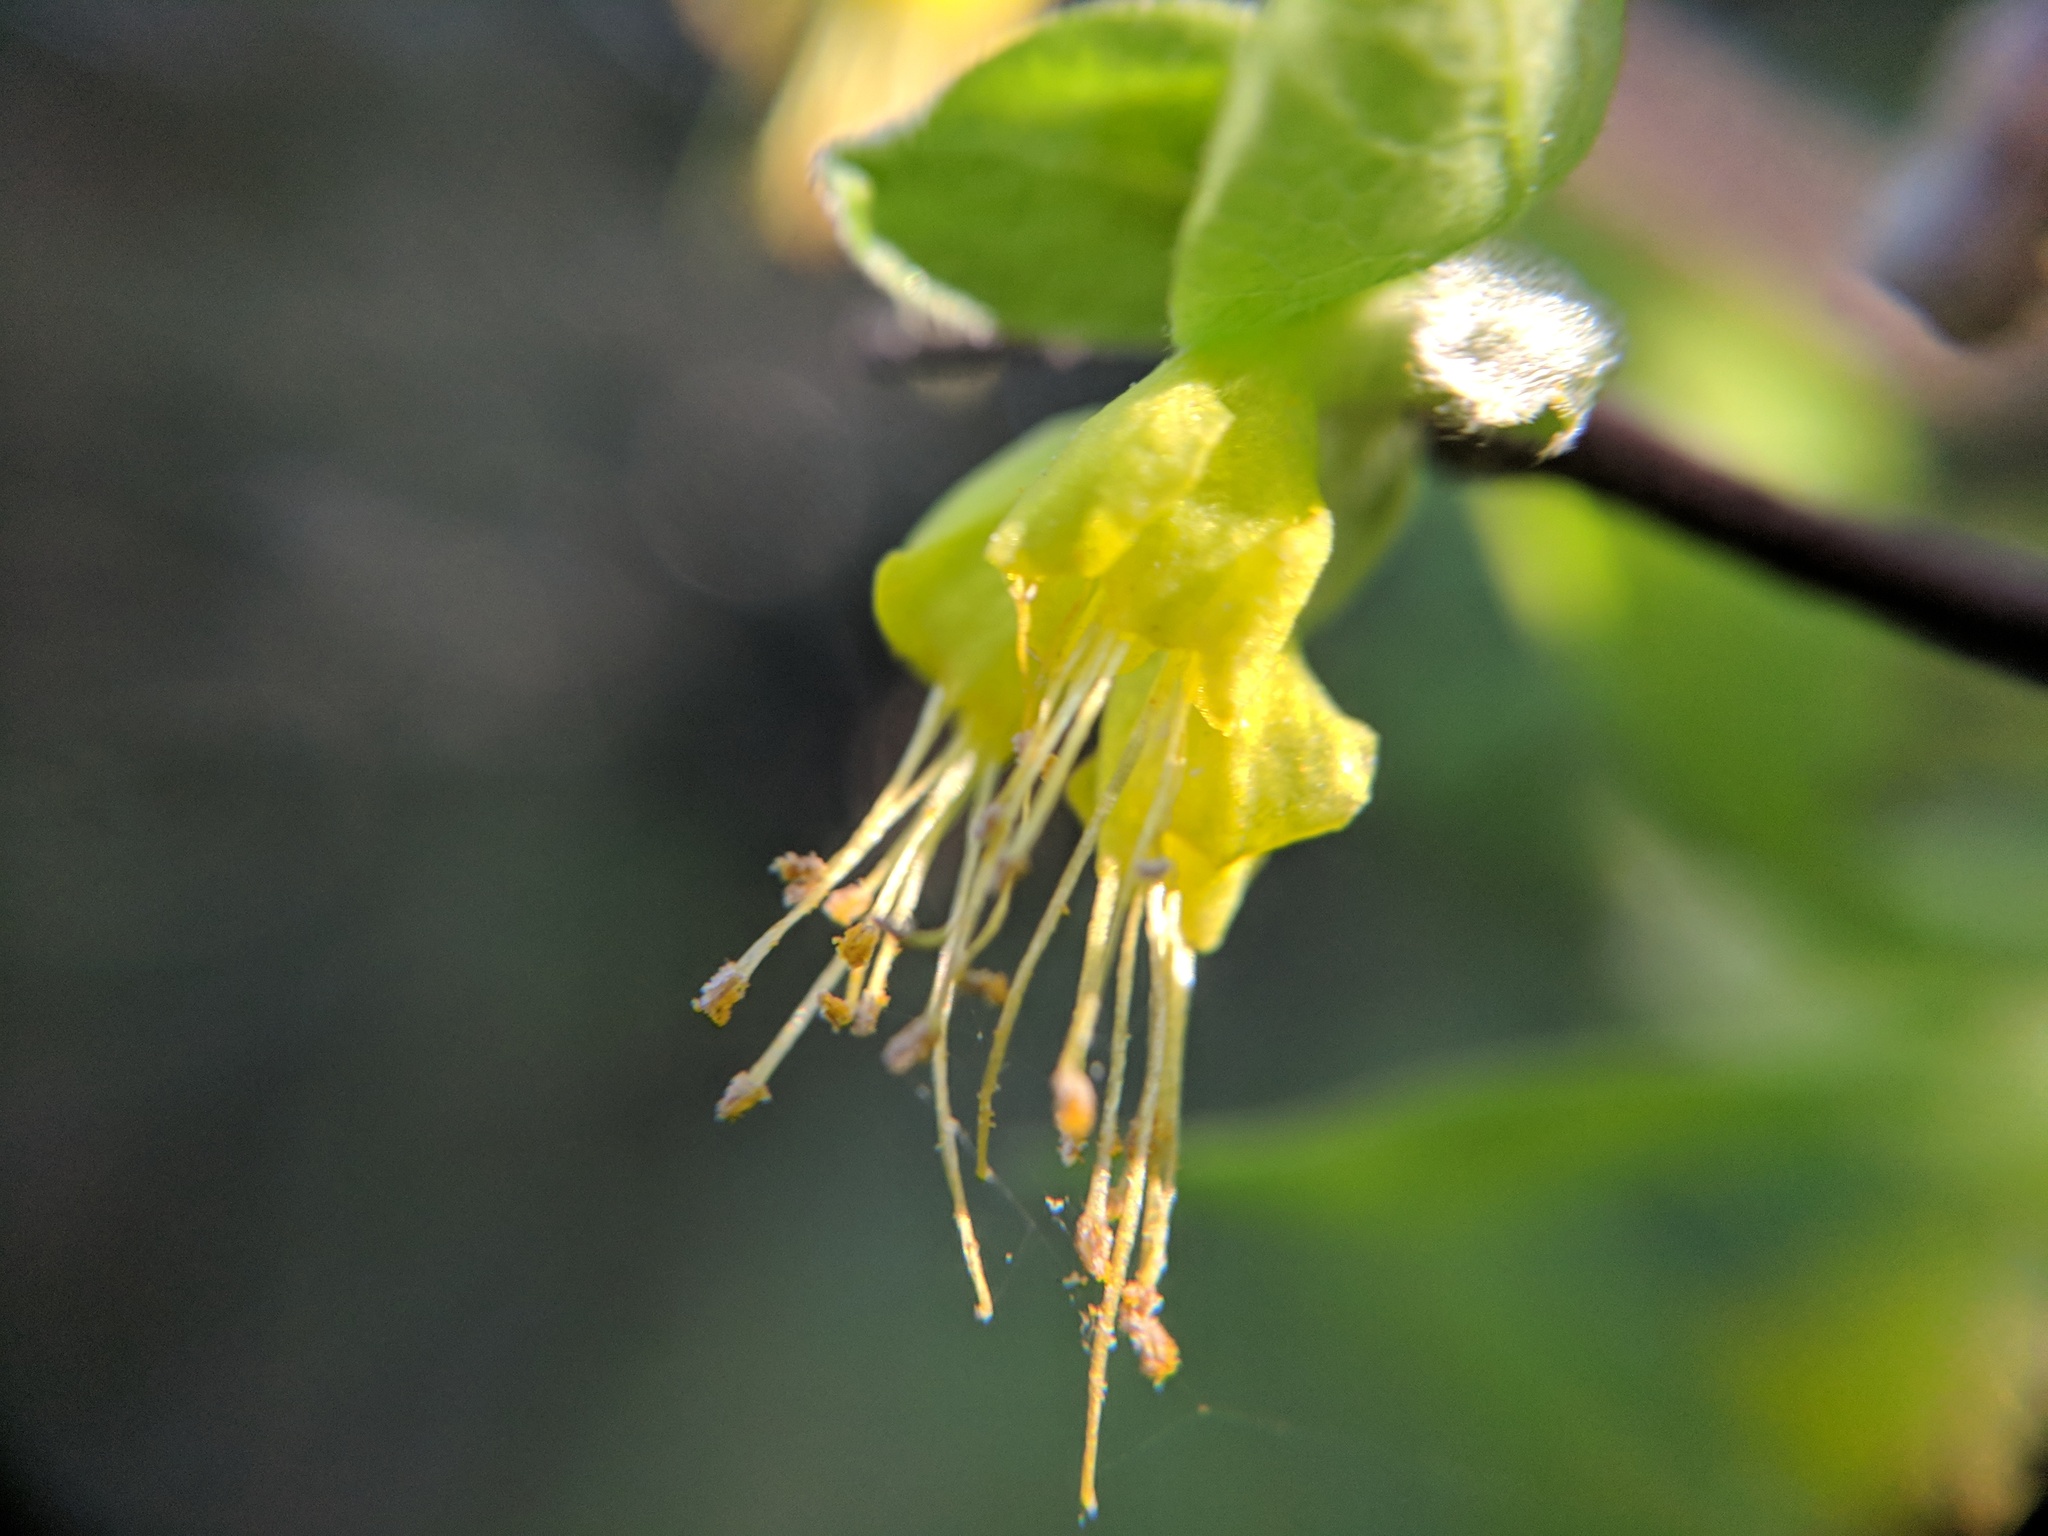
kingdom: Plantae
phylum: Tracheophyta
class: Magnoliopsida
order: Malvales
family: Thymelaeaceae
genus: Dirca
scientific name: Dirca occidentalis
